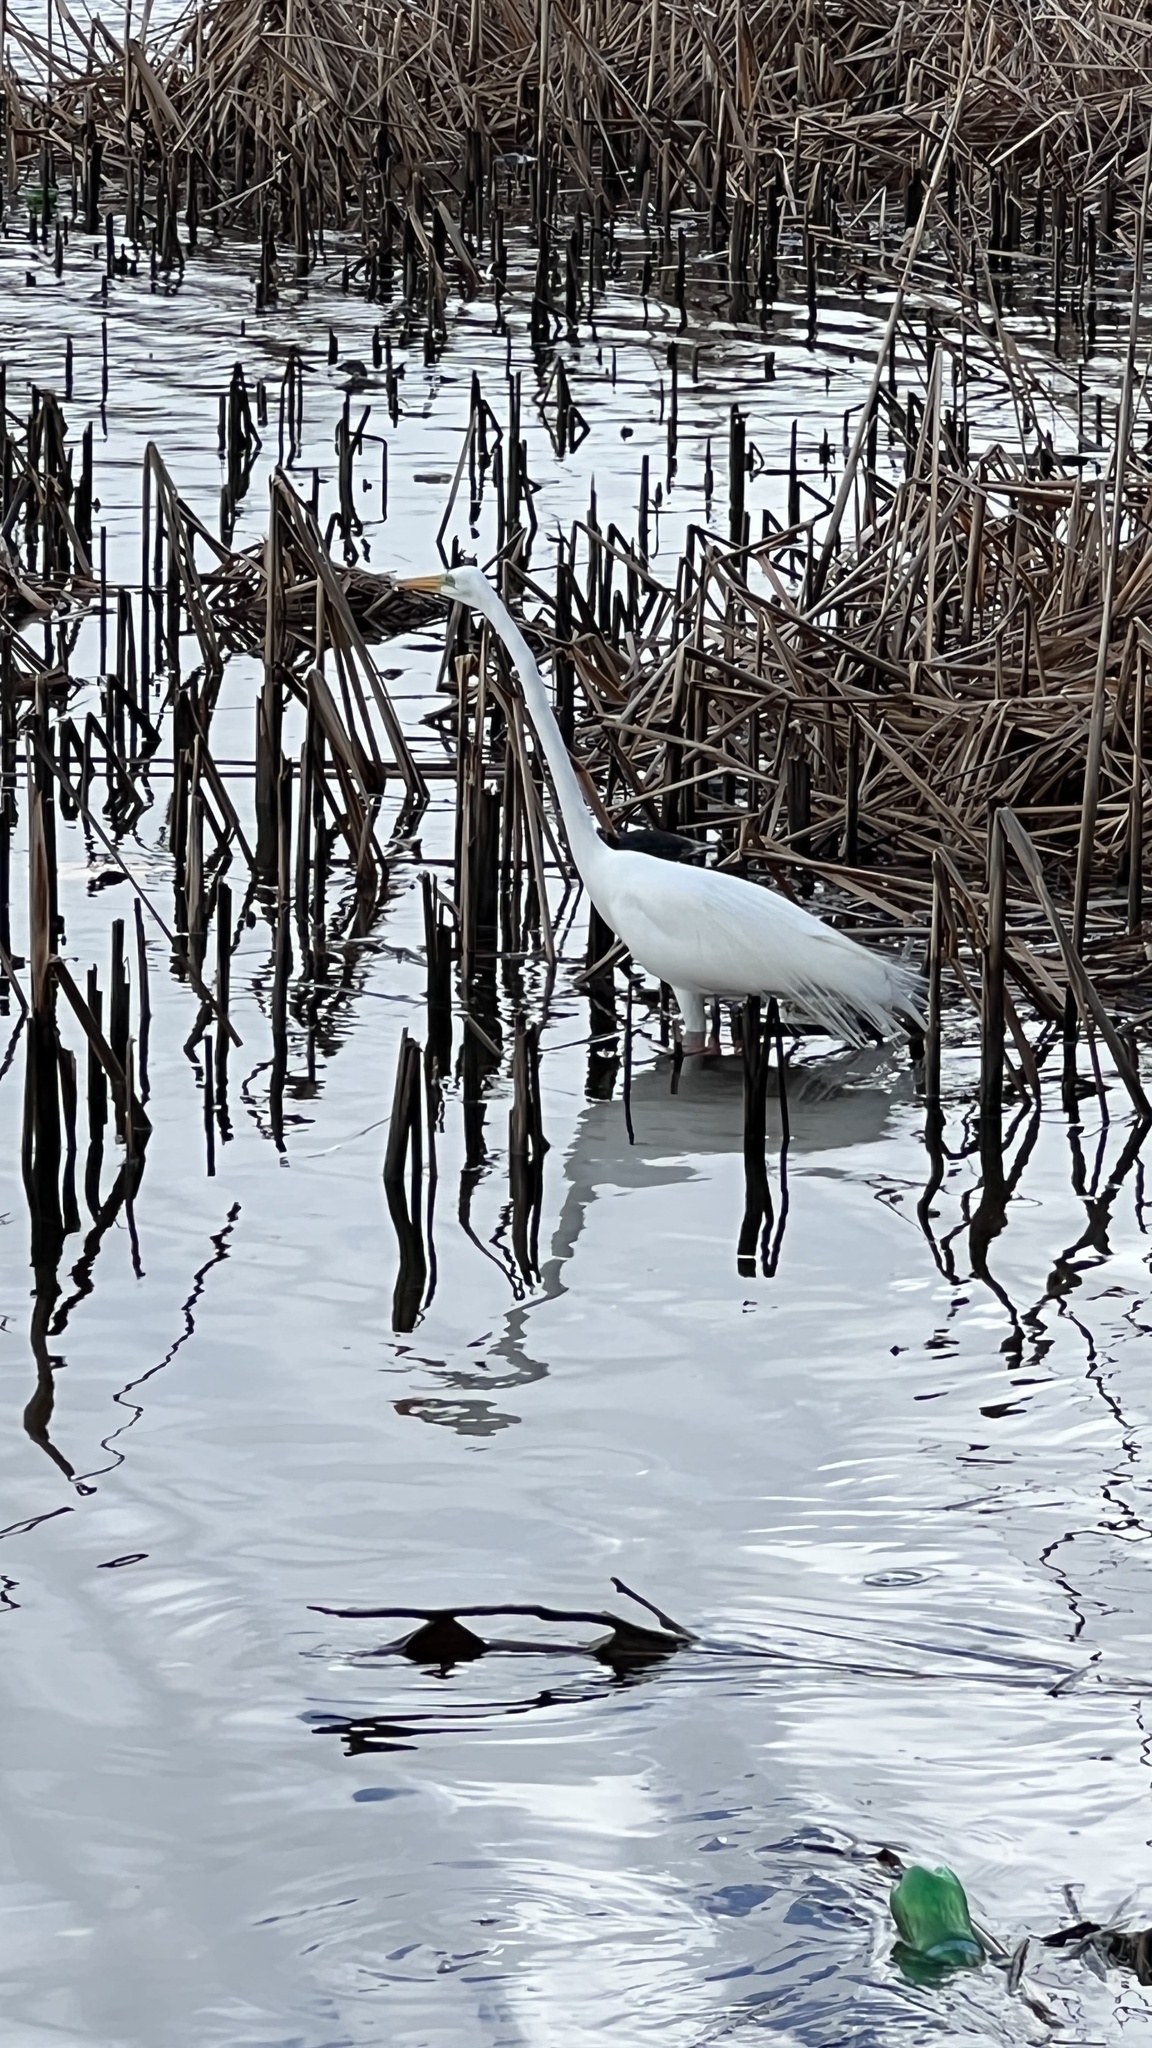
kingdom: Animalia
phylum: Chordata
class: Aves
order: Pelecaniformes
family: Ardeidae
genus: Ardea
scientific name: Ardea alba
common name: Great egret
